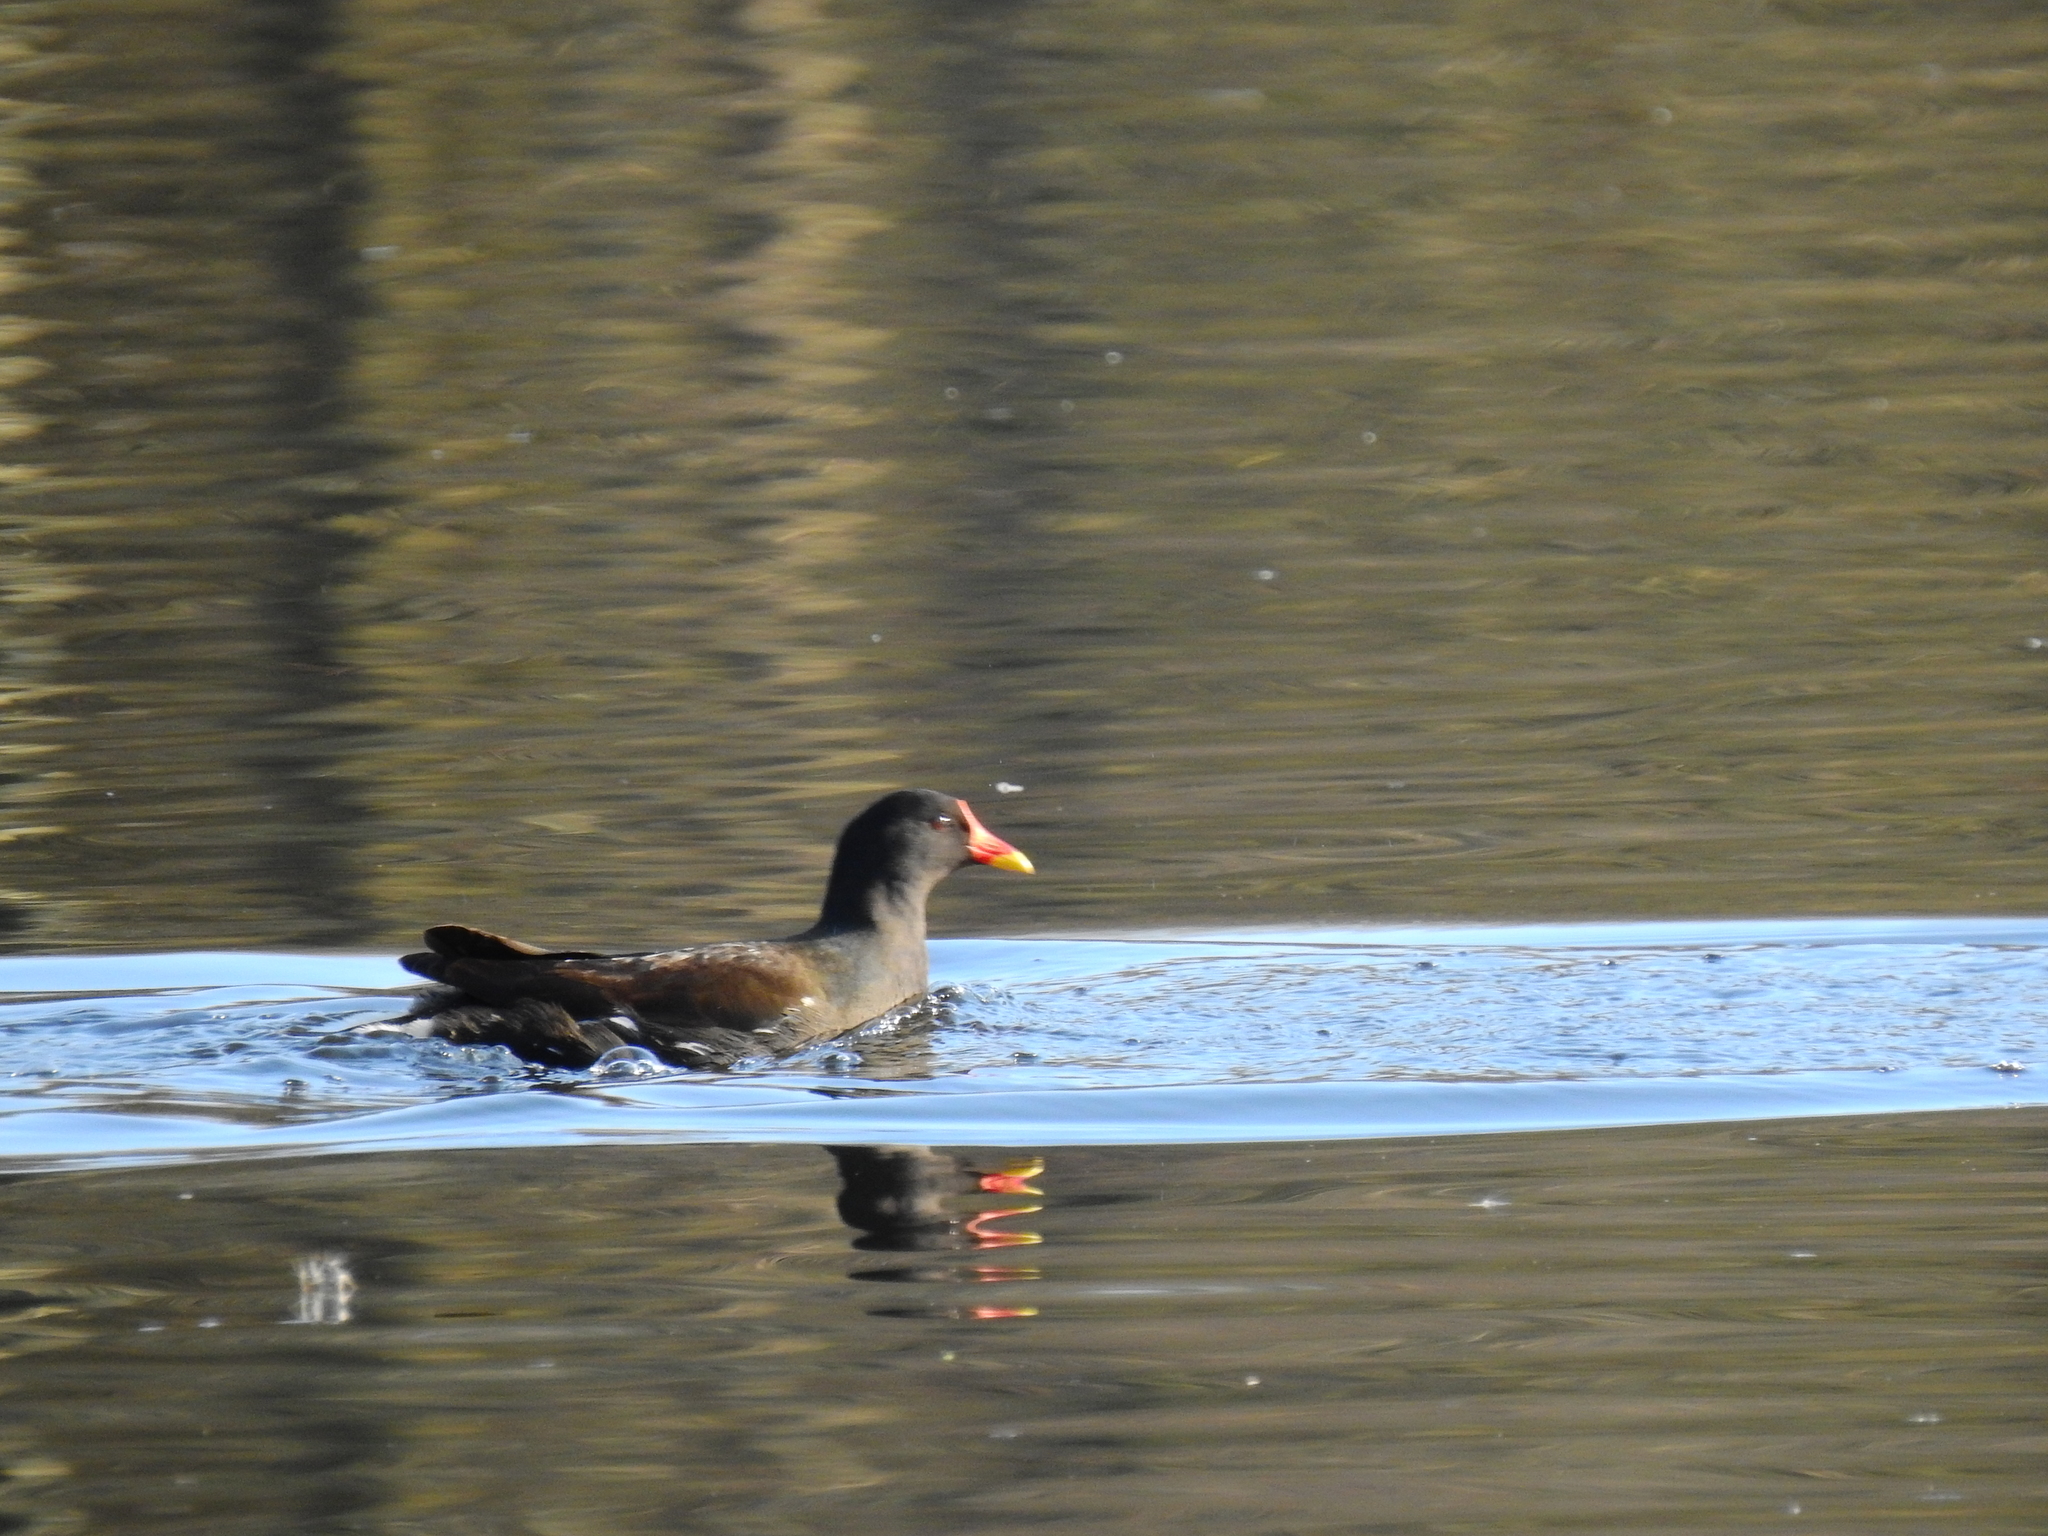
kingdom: Animalia
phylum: Chordata
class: Aves
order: Gruiformes
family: Rallidae
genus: Gallinula
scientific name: Gallinula chloropus
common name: Common moorhen
